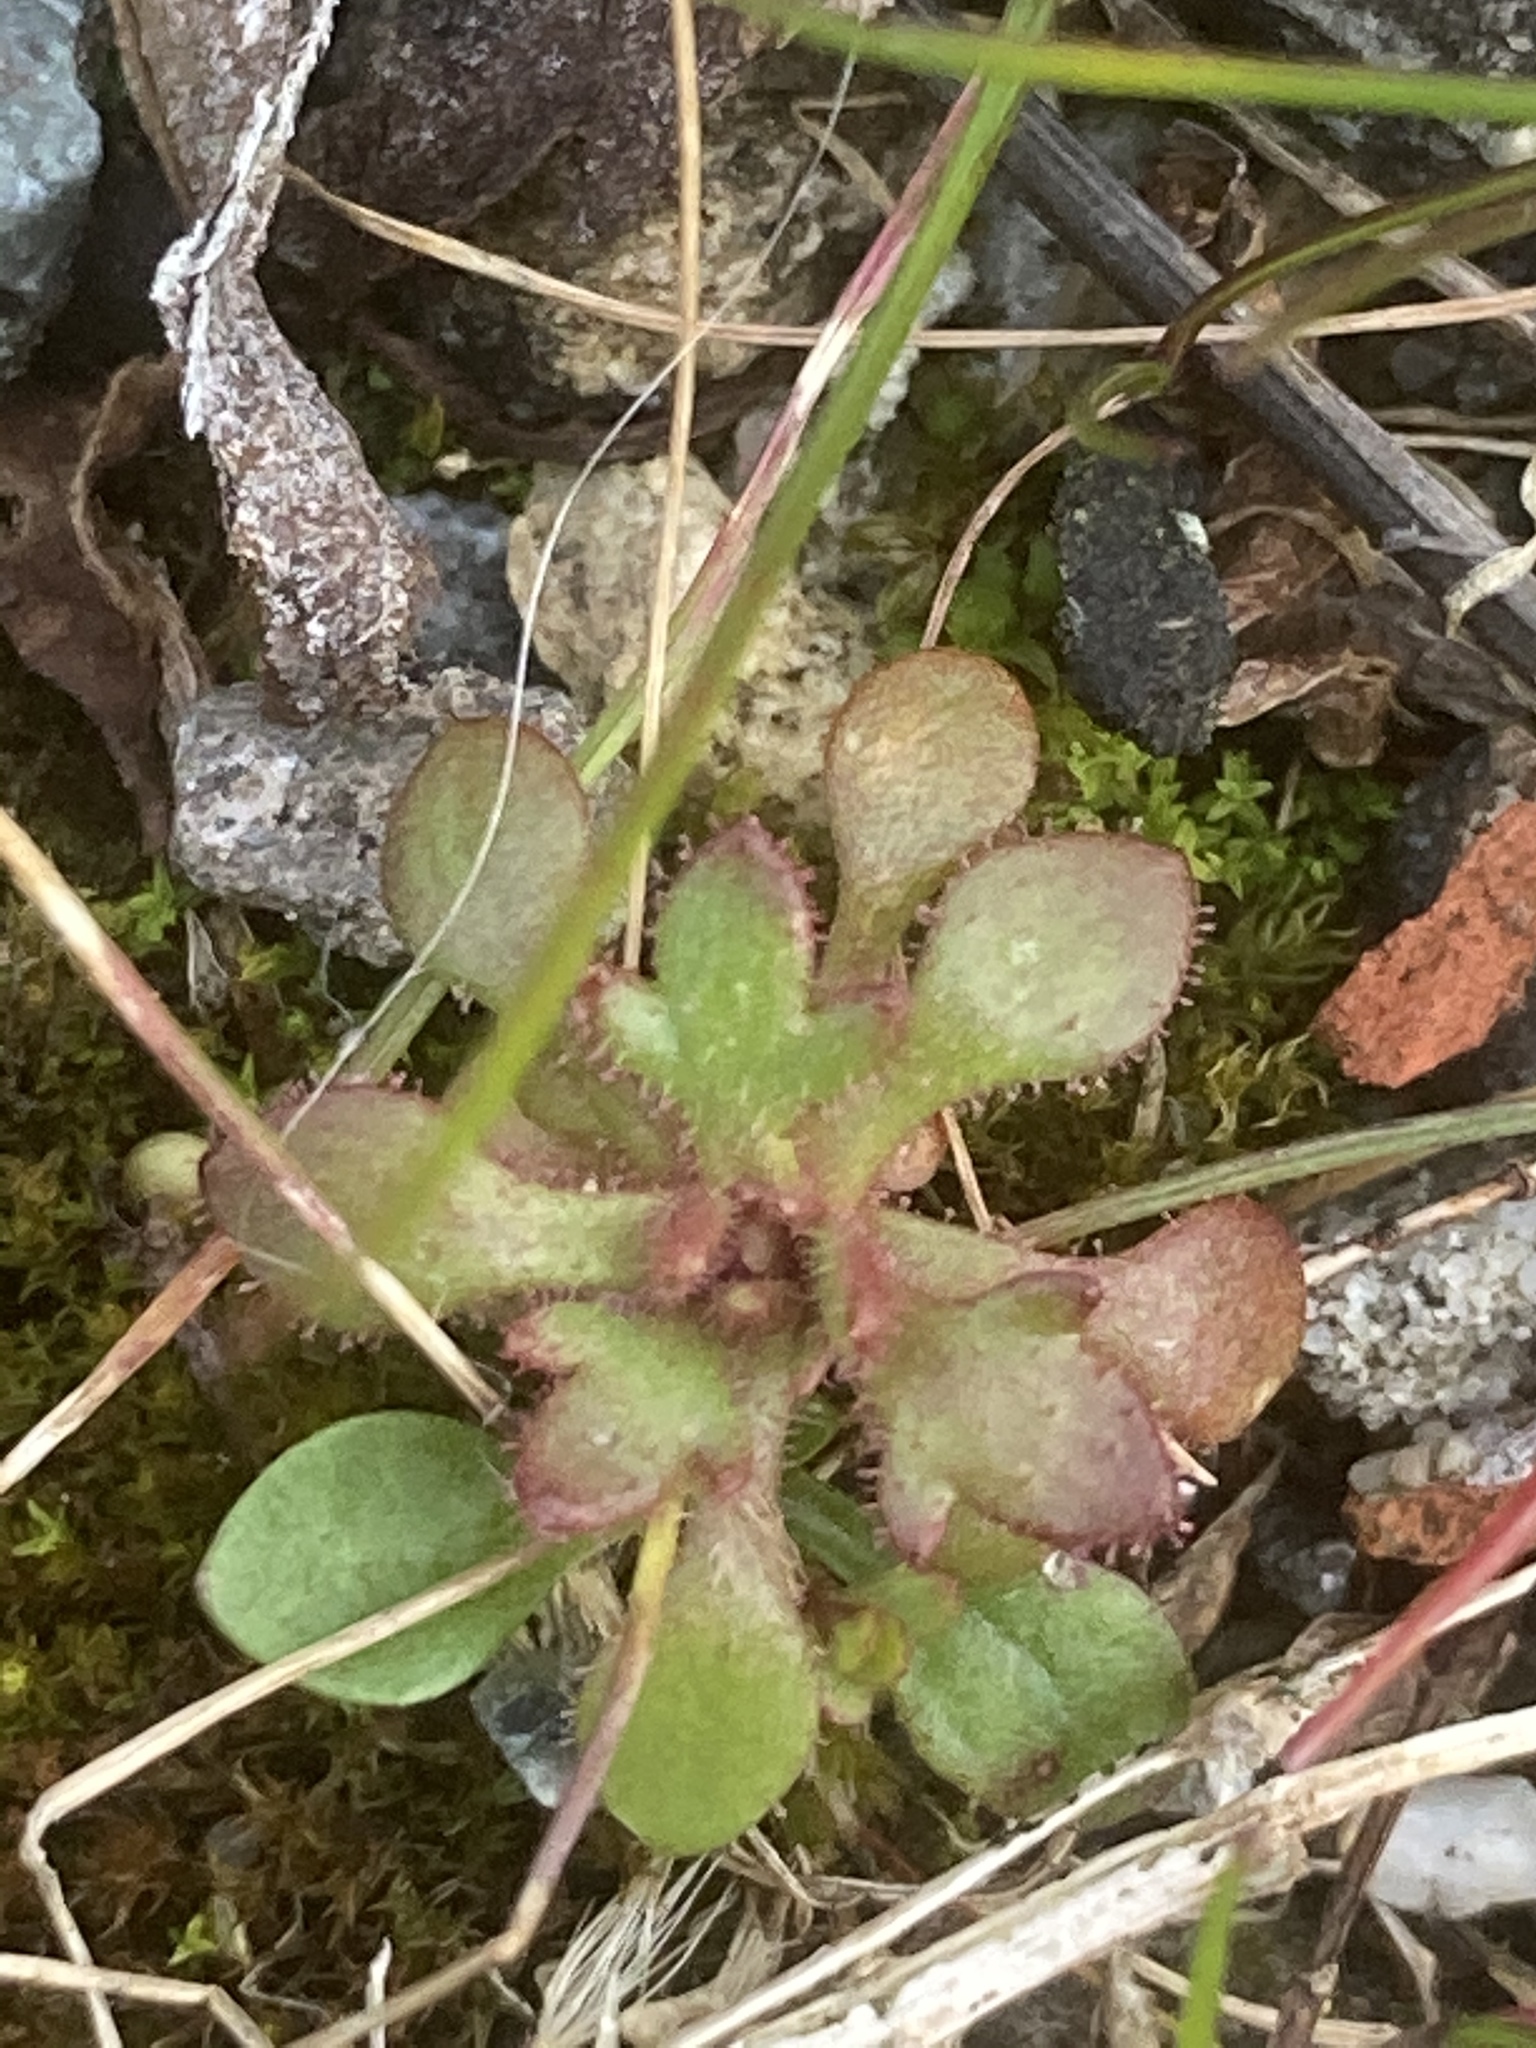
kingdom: Plantae
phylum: Tracheophyta
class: Magnoliopsida
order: Saxifragales
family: Saxifragaceae
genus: Saxifraga
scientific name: Saxifraga tridactylites
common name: Rue-leaved saxifrage
